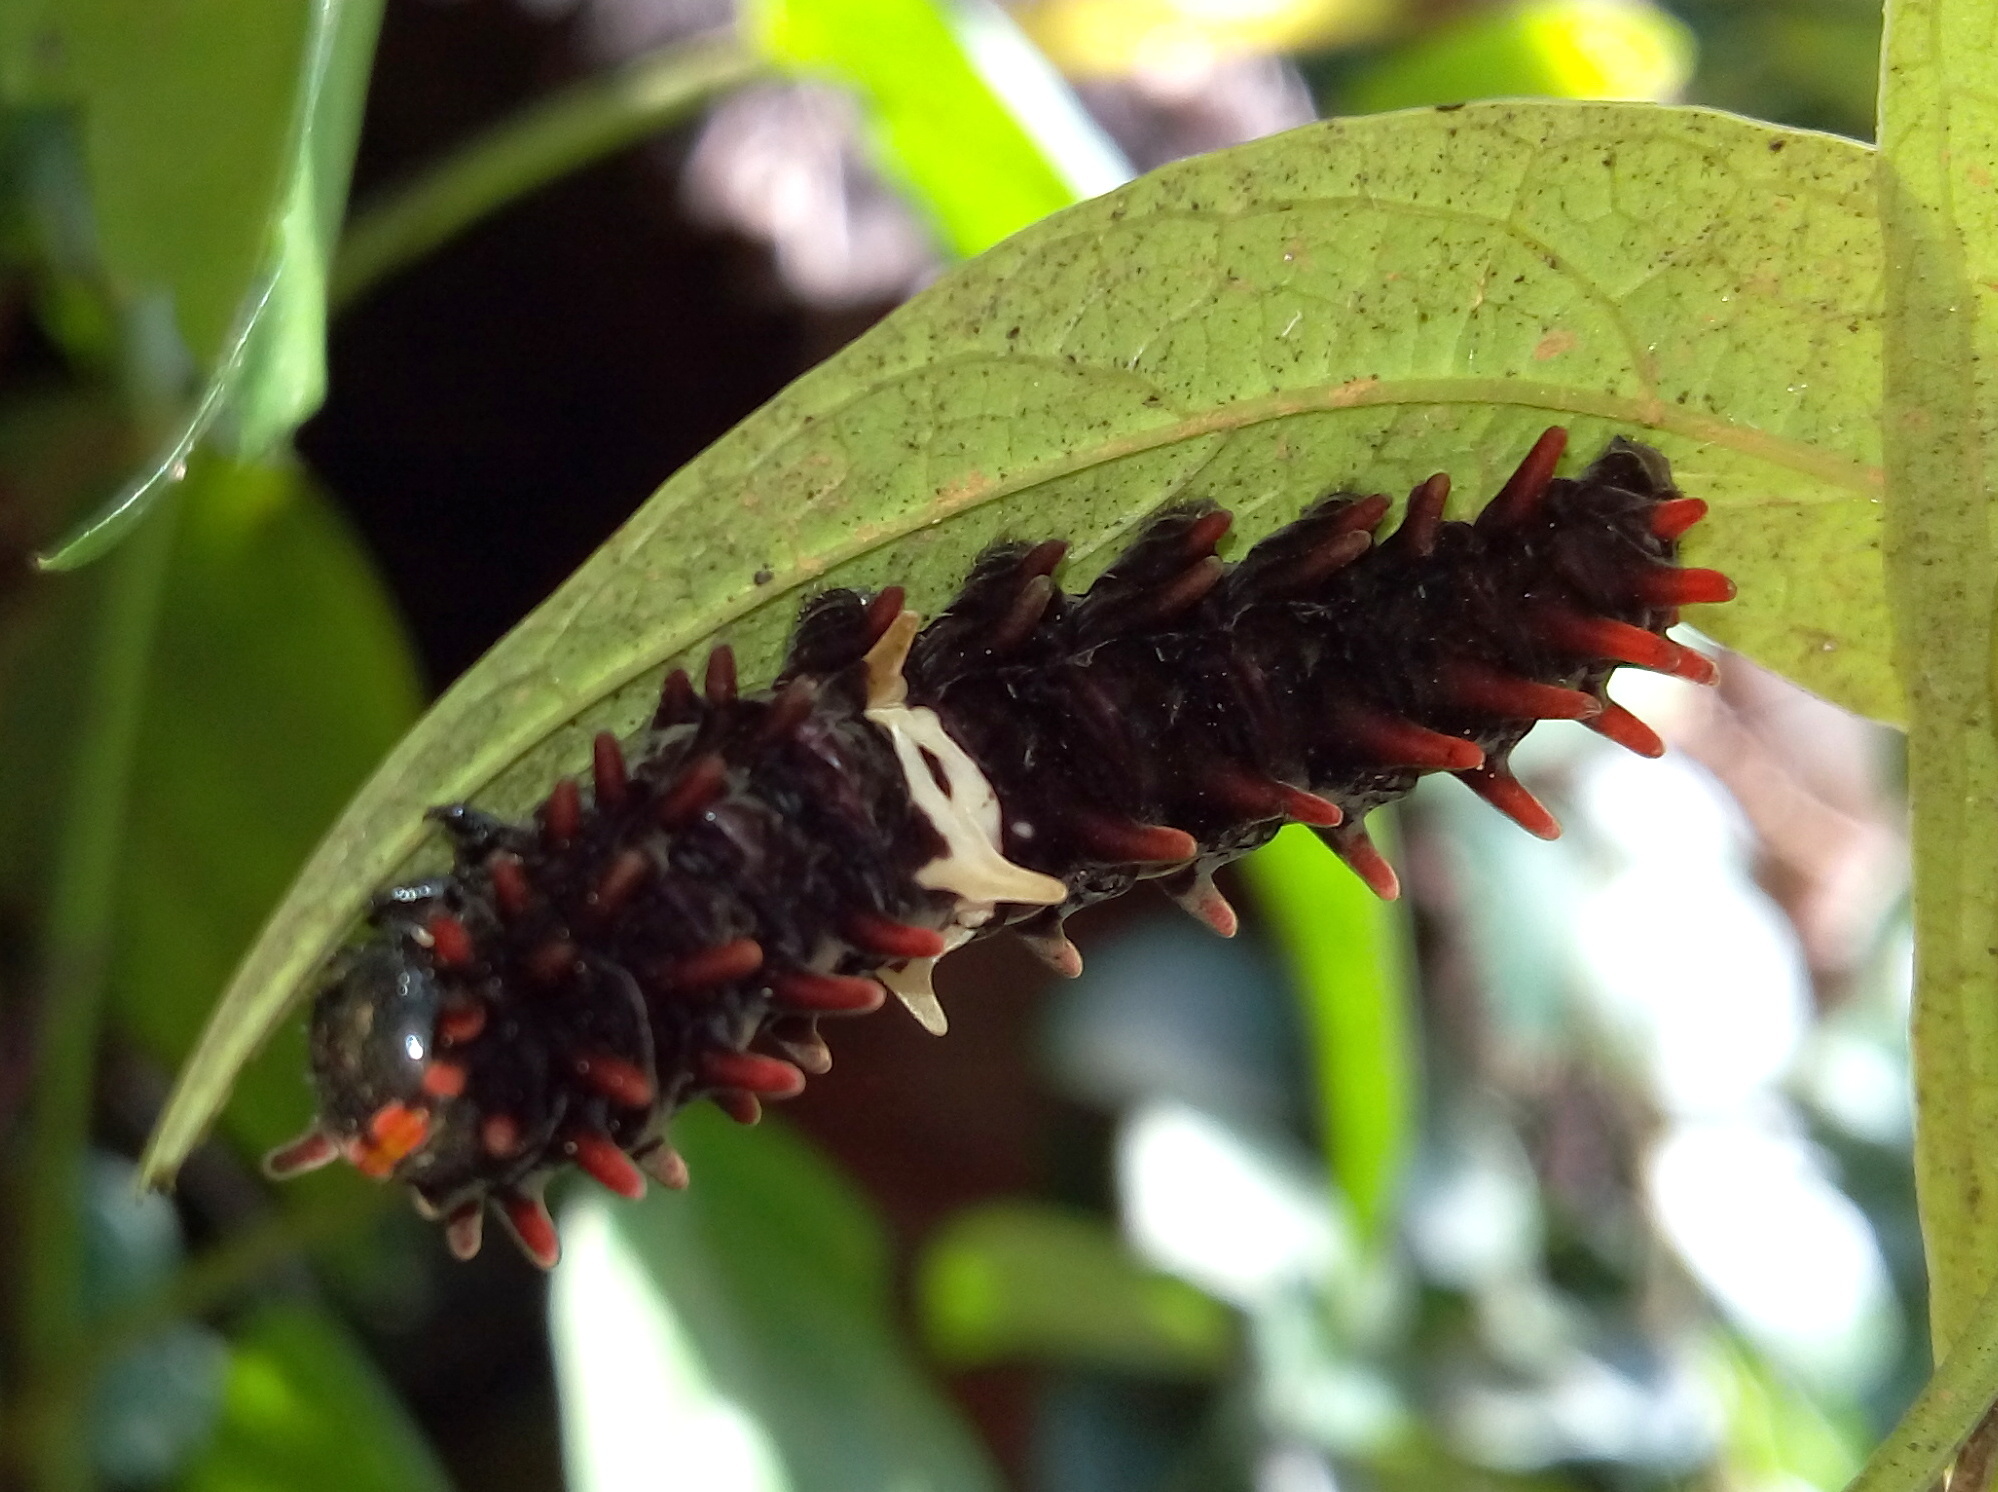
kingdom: Animalia
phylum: Arthropoda
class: Insecta
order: Lepidoptera
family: Papilionidae
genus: Pachliopta
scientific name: Pachliopta aristolochiae
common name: Common rose
